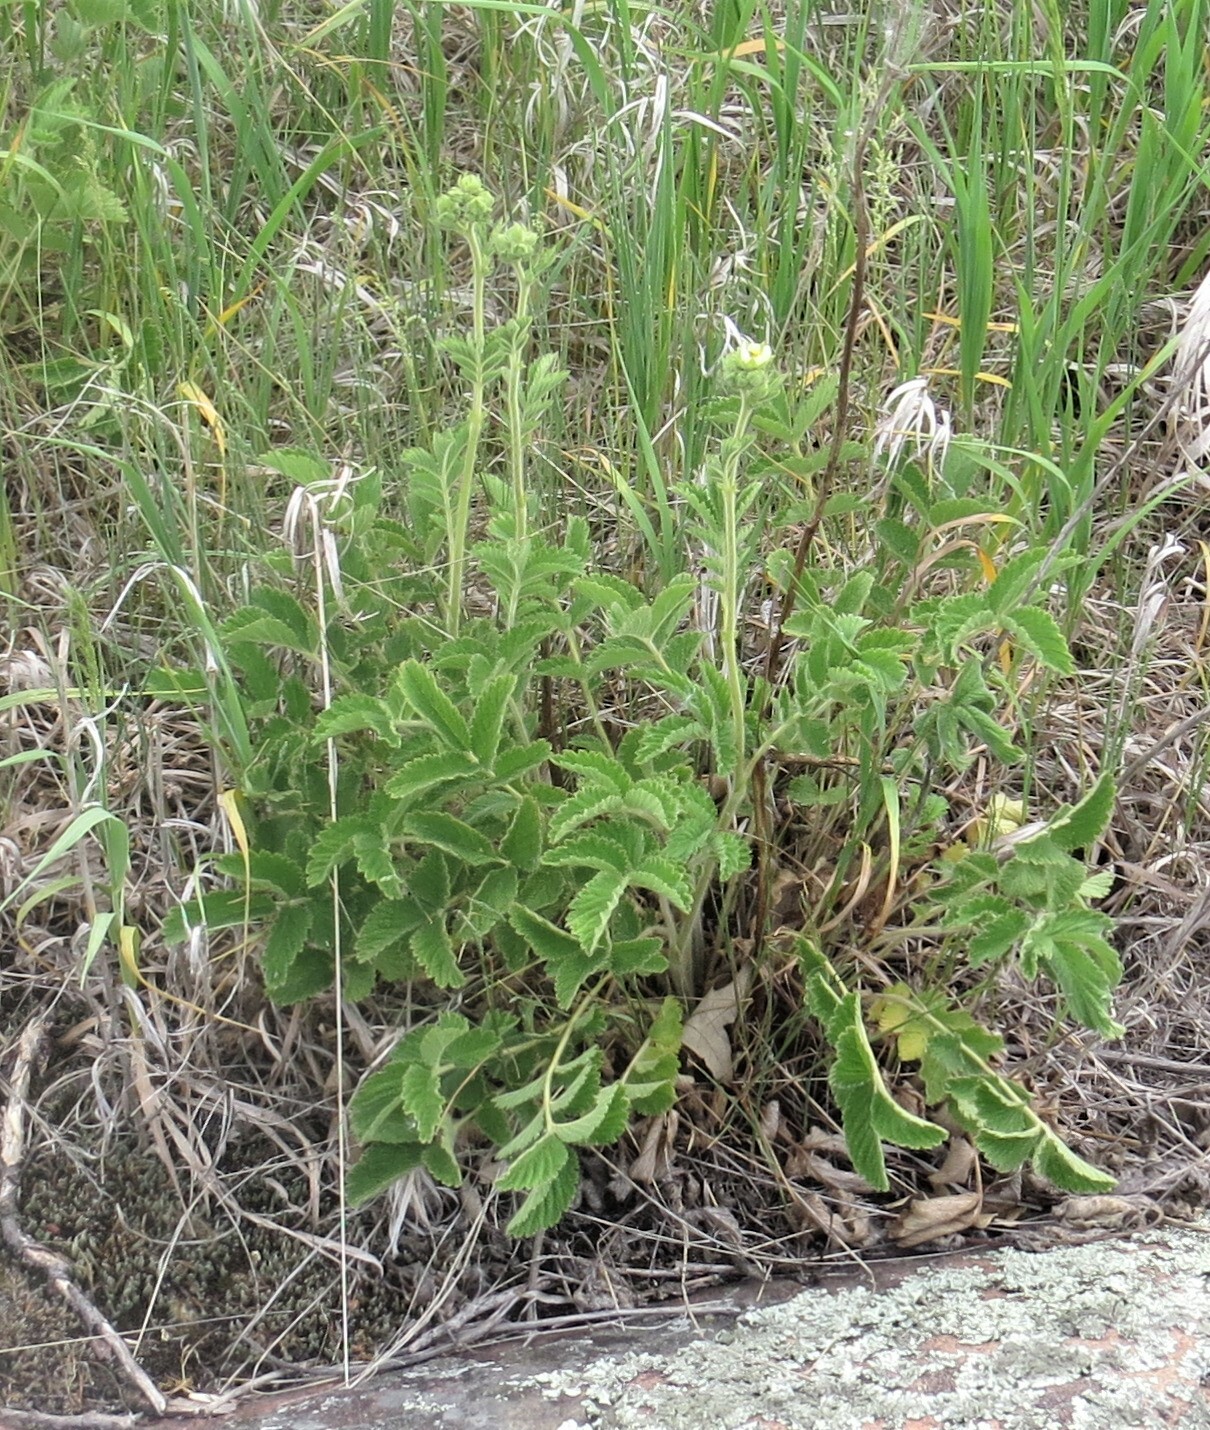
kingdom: Plantae
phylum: Tracheophyta
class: Magnoliopsida
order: Rosales
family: Rosaceae
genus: Drymocallis
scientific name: Drymocallis arguta
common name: Tall cinquefoil
